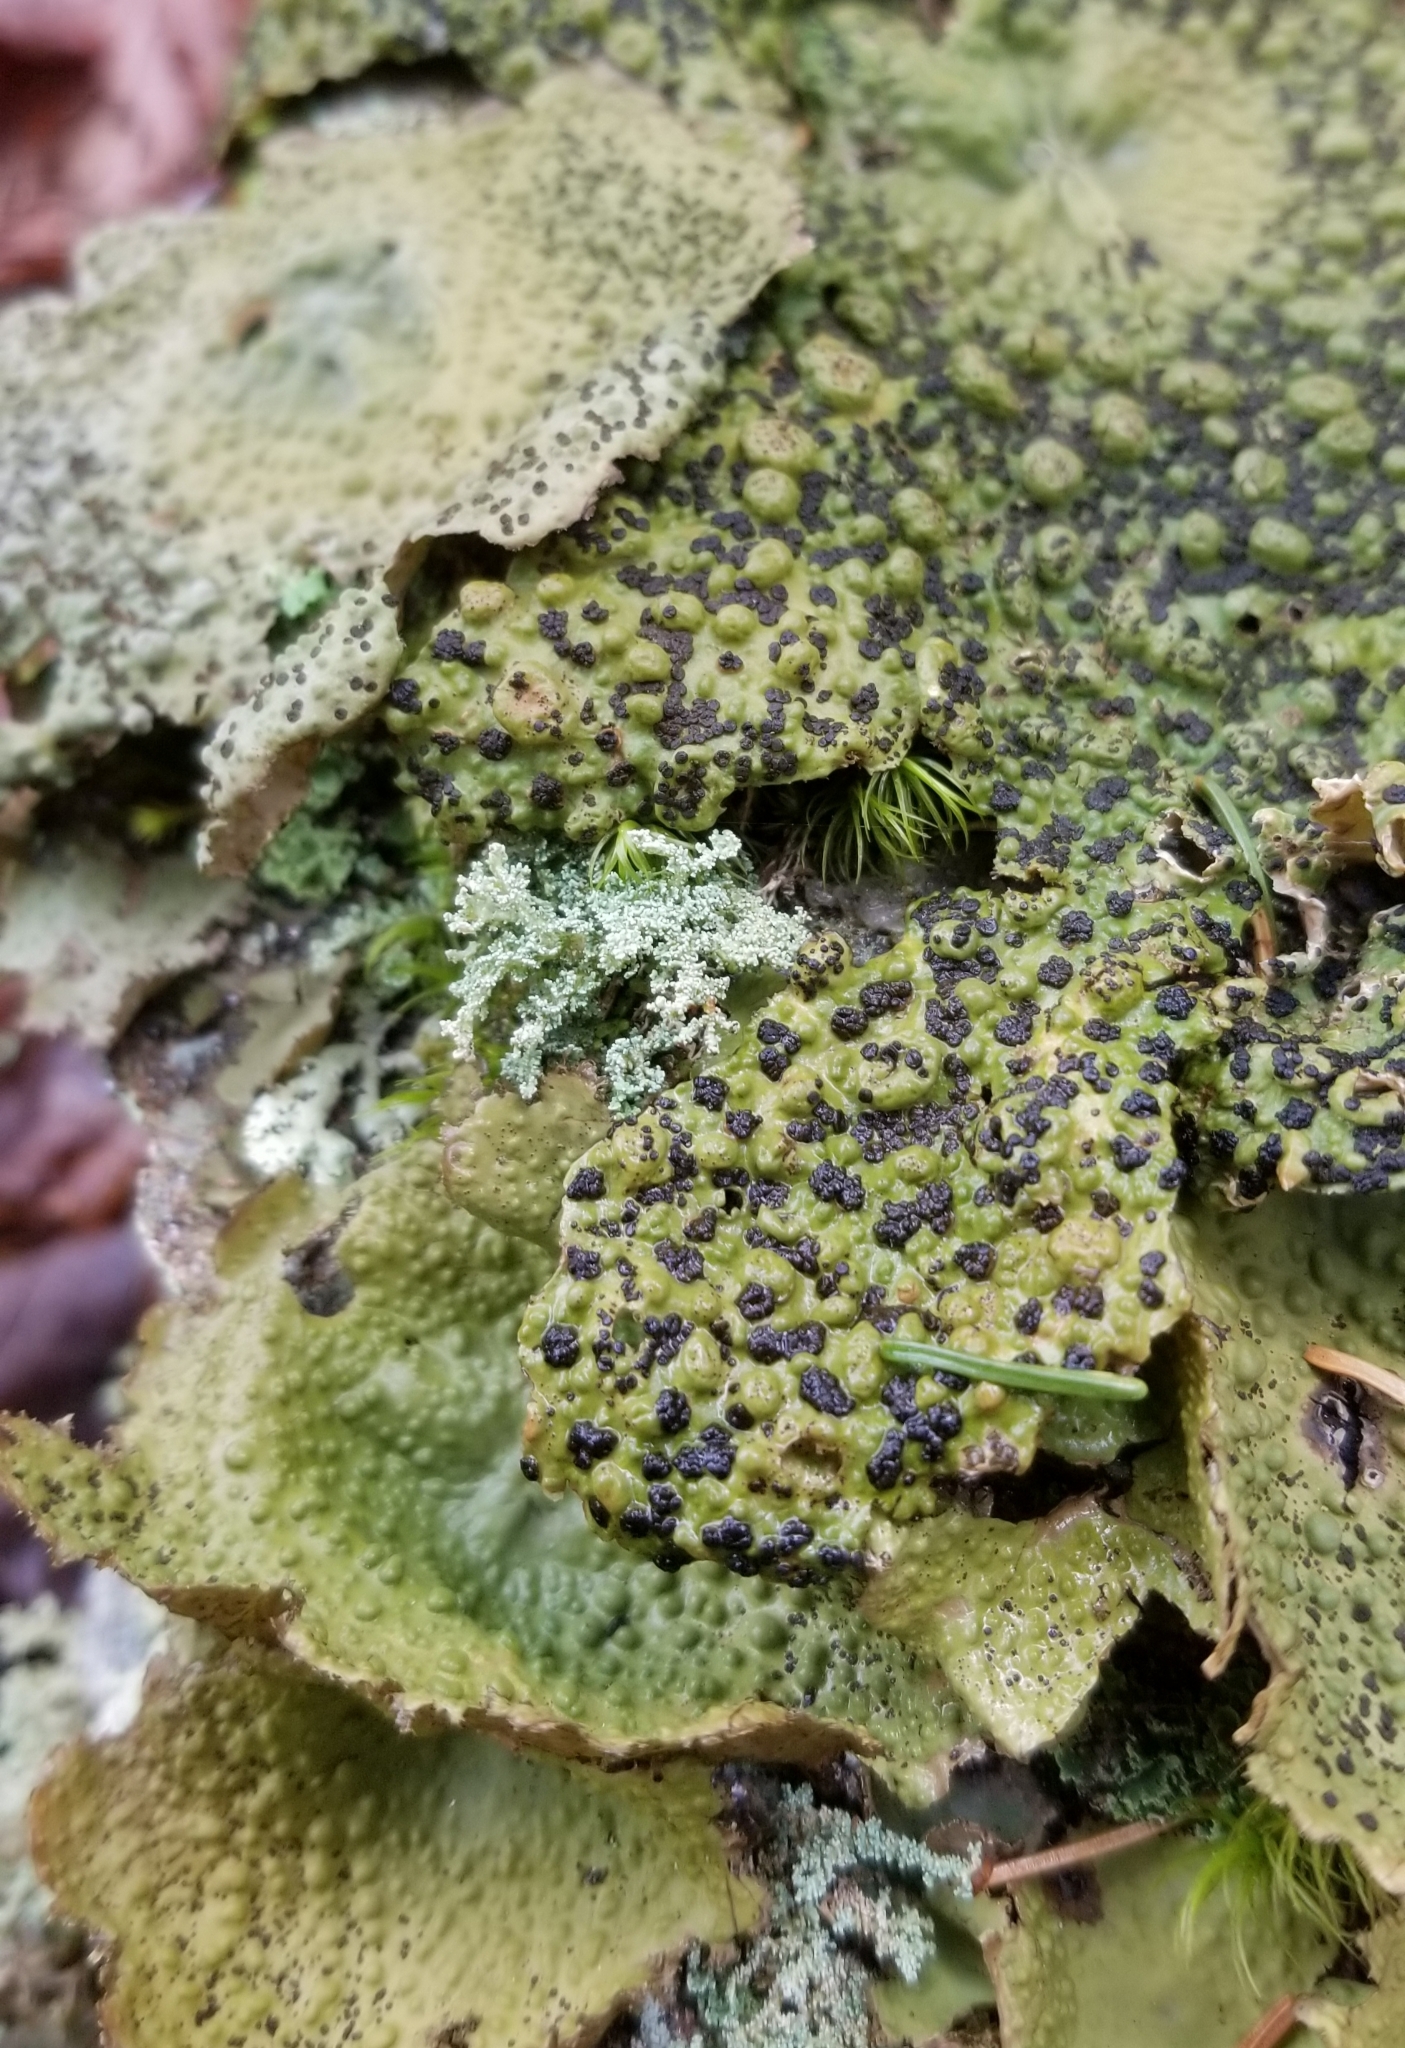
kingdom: Fungi
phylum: Ascomycota
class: Lecanoromycetes
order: Umbilicariales
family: Umbilicariaceae
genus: Lasallia
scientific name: Lasallia papulosa
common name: Common toadskin lichen
